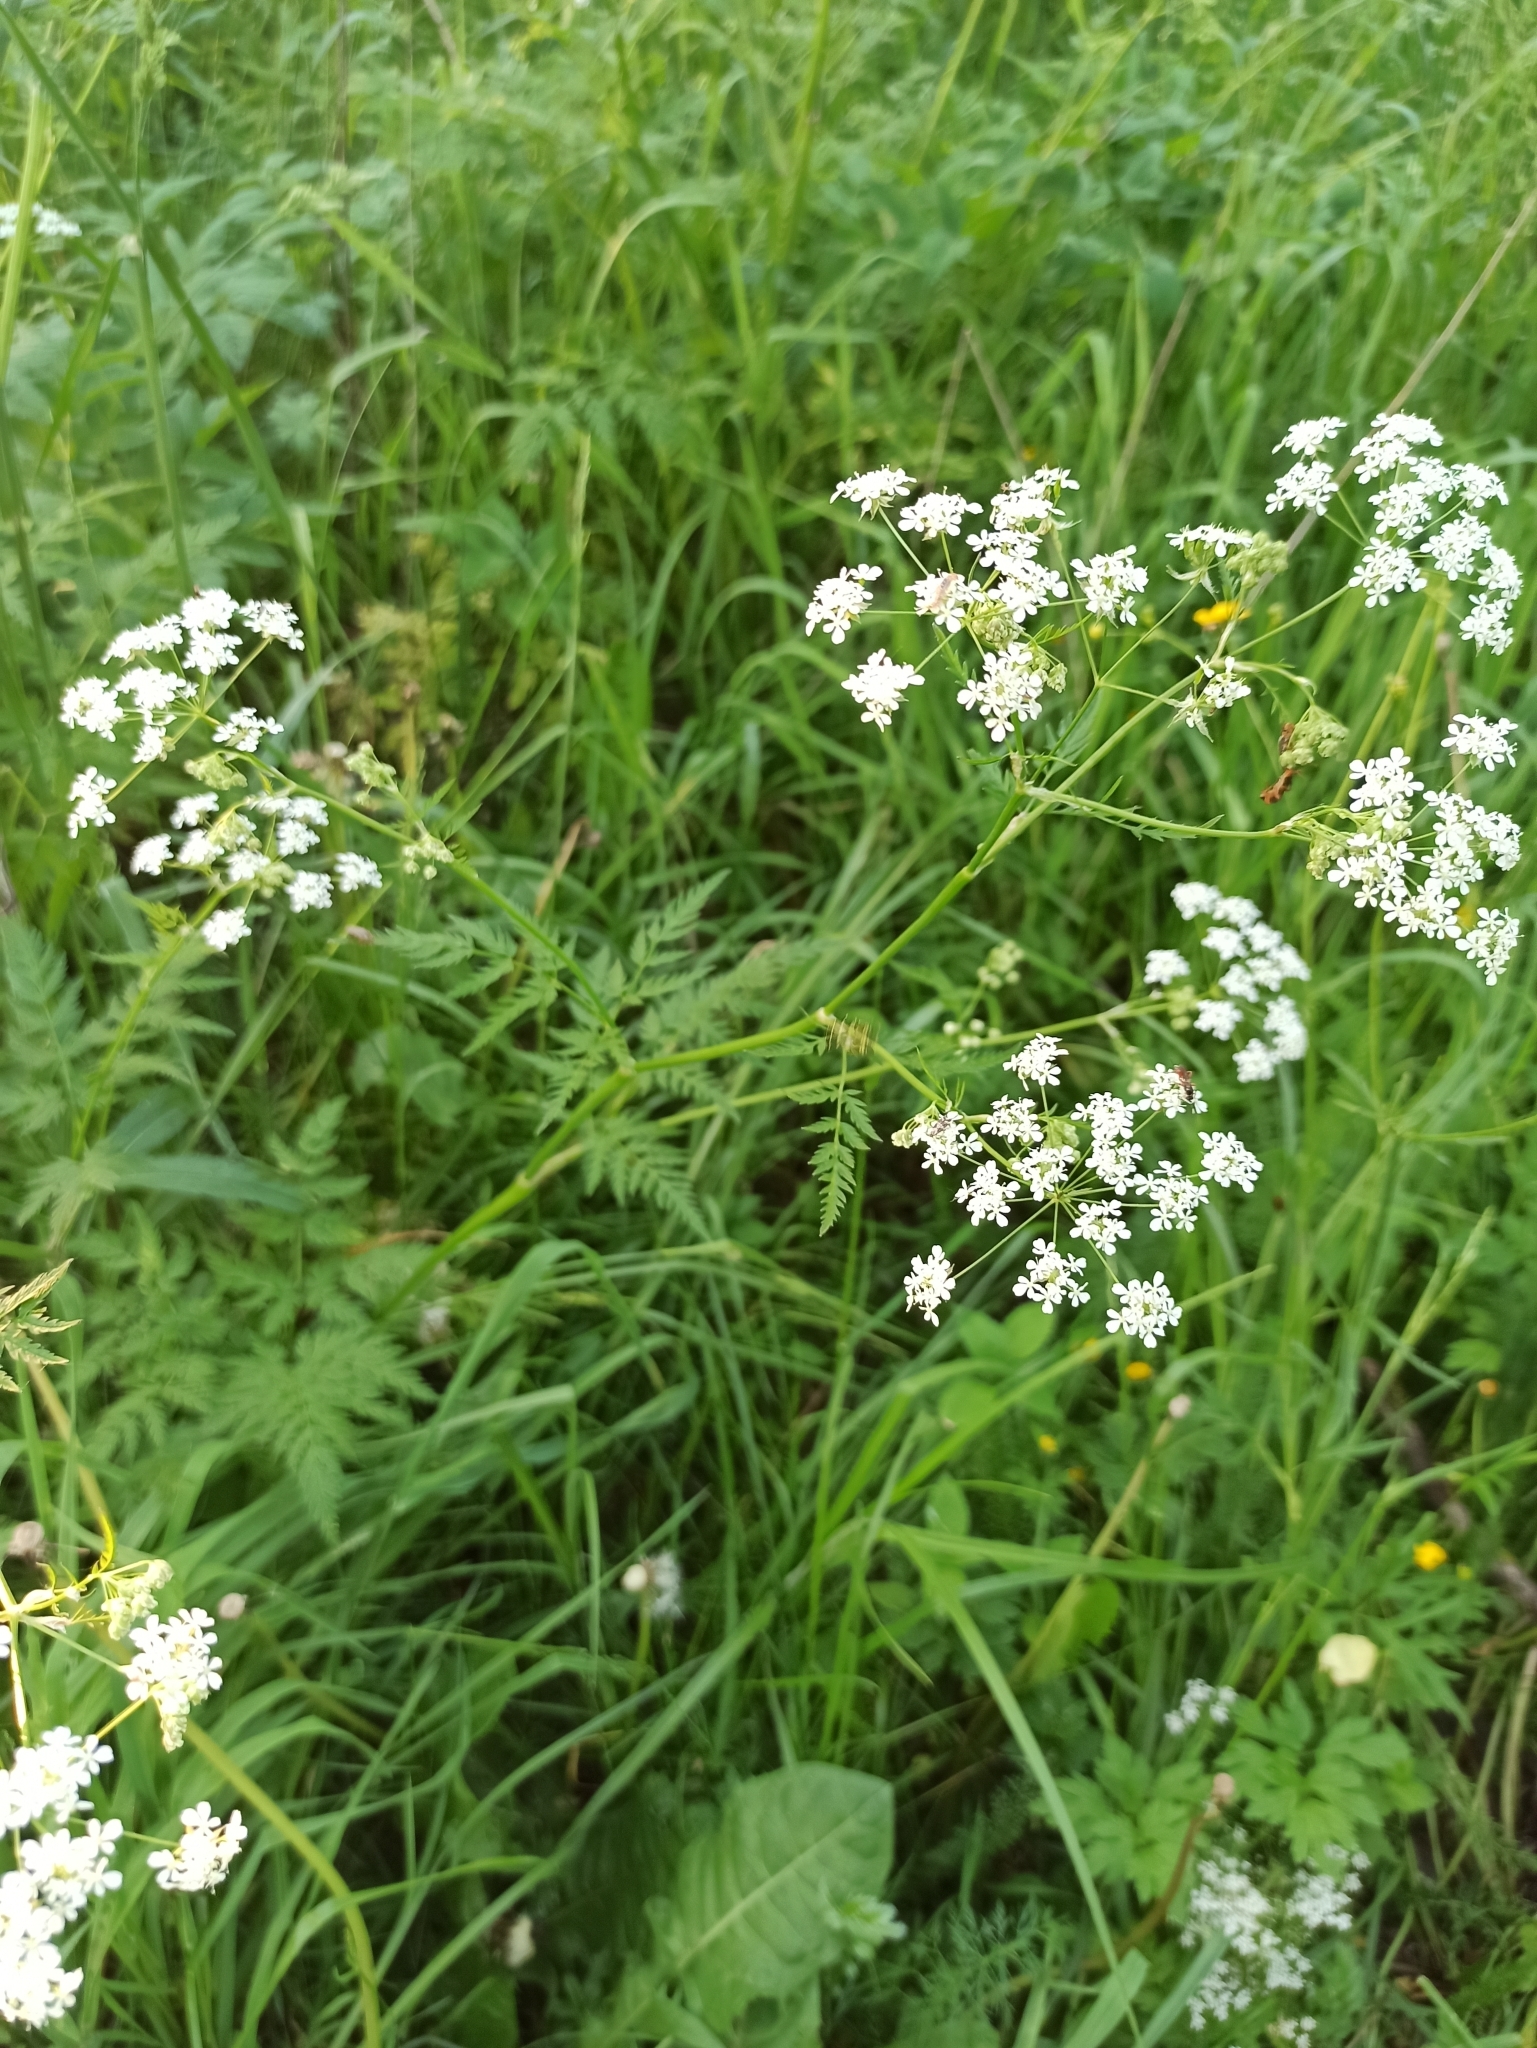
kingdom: Plantae
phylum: Tracheophyta
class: Magnoliopsida
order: Apiales
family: Apiaceae
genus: Anthriscus
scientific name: Anthriscus sylvestris
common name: Cow parsley
